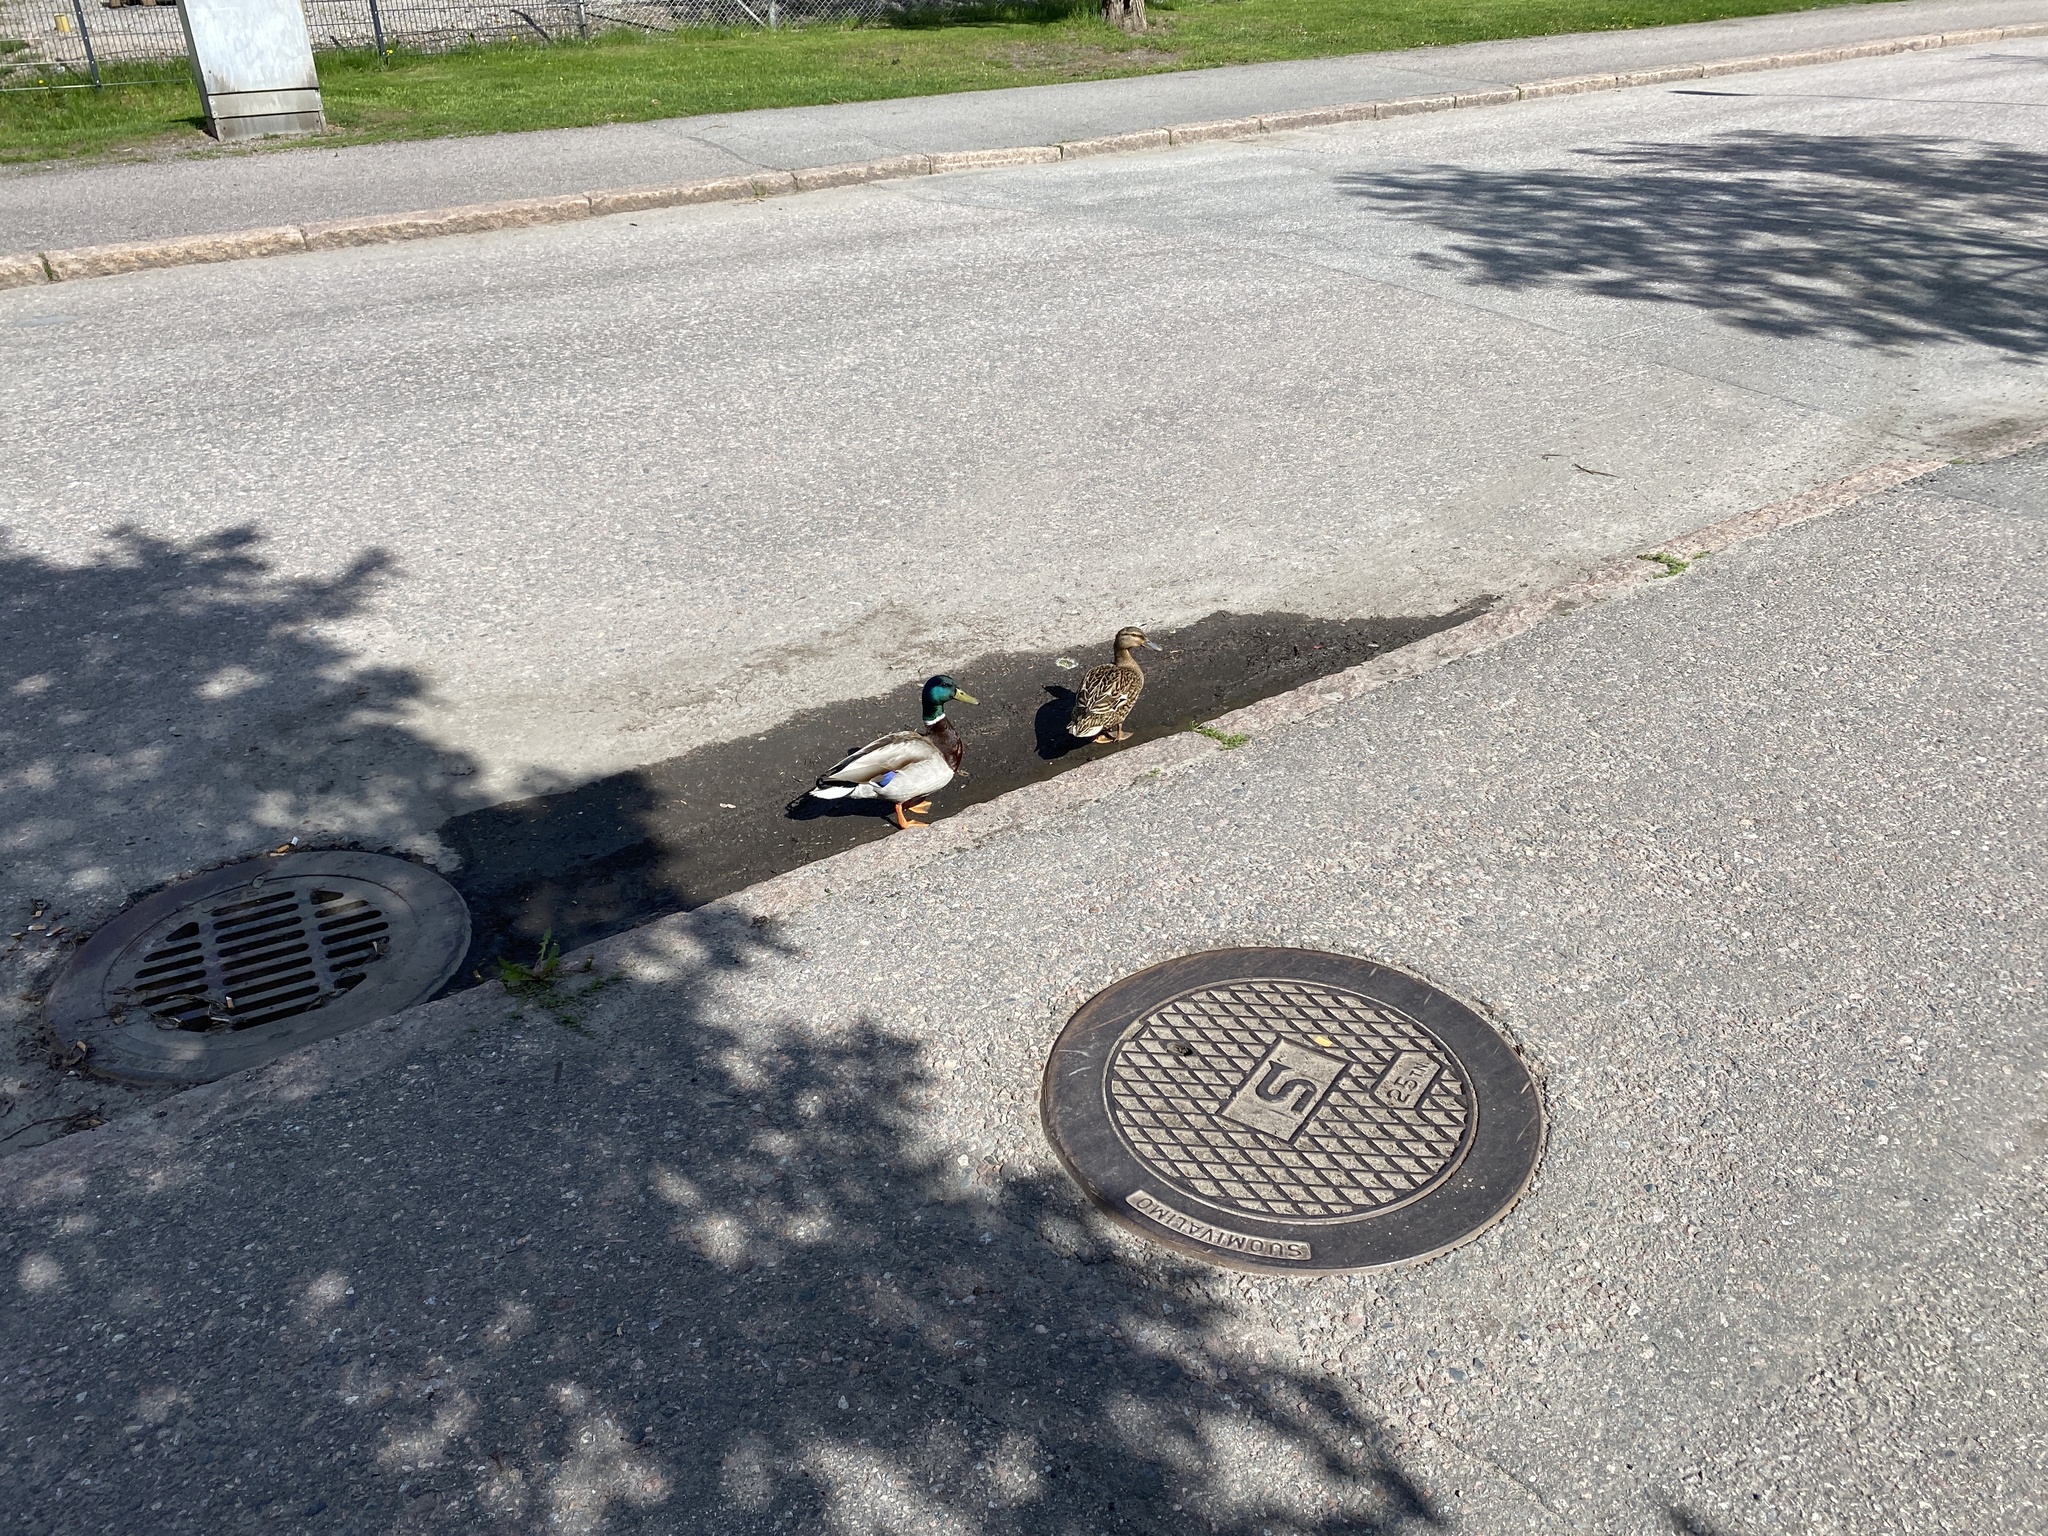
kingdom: Animalia
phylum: Chordata
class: Aves
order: Anseriformes
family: Anatidae
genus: Anas
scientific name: Anas platyrhynchos
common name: Mallard
